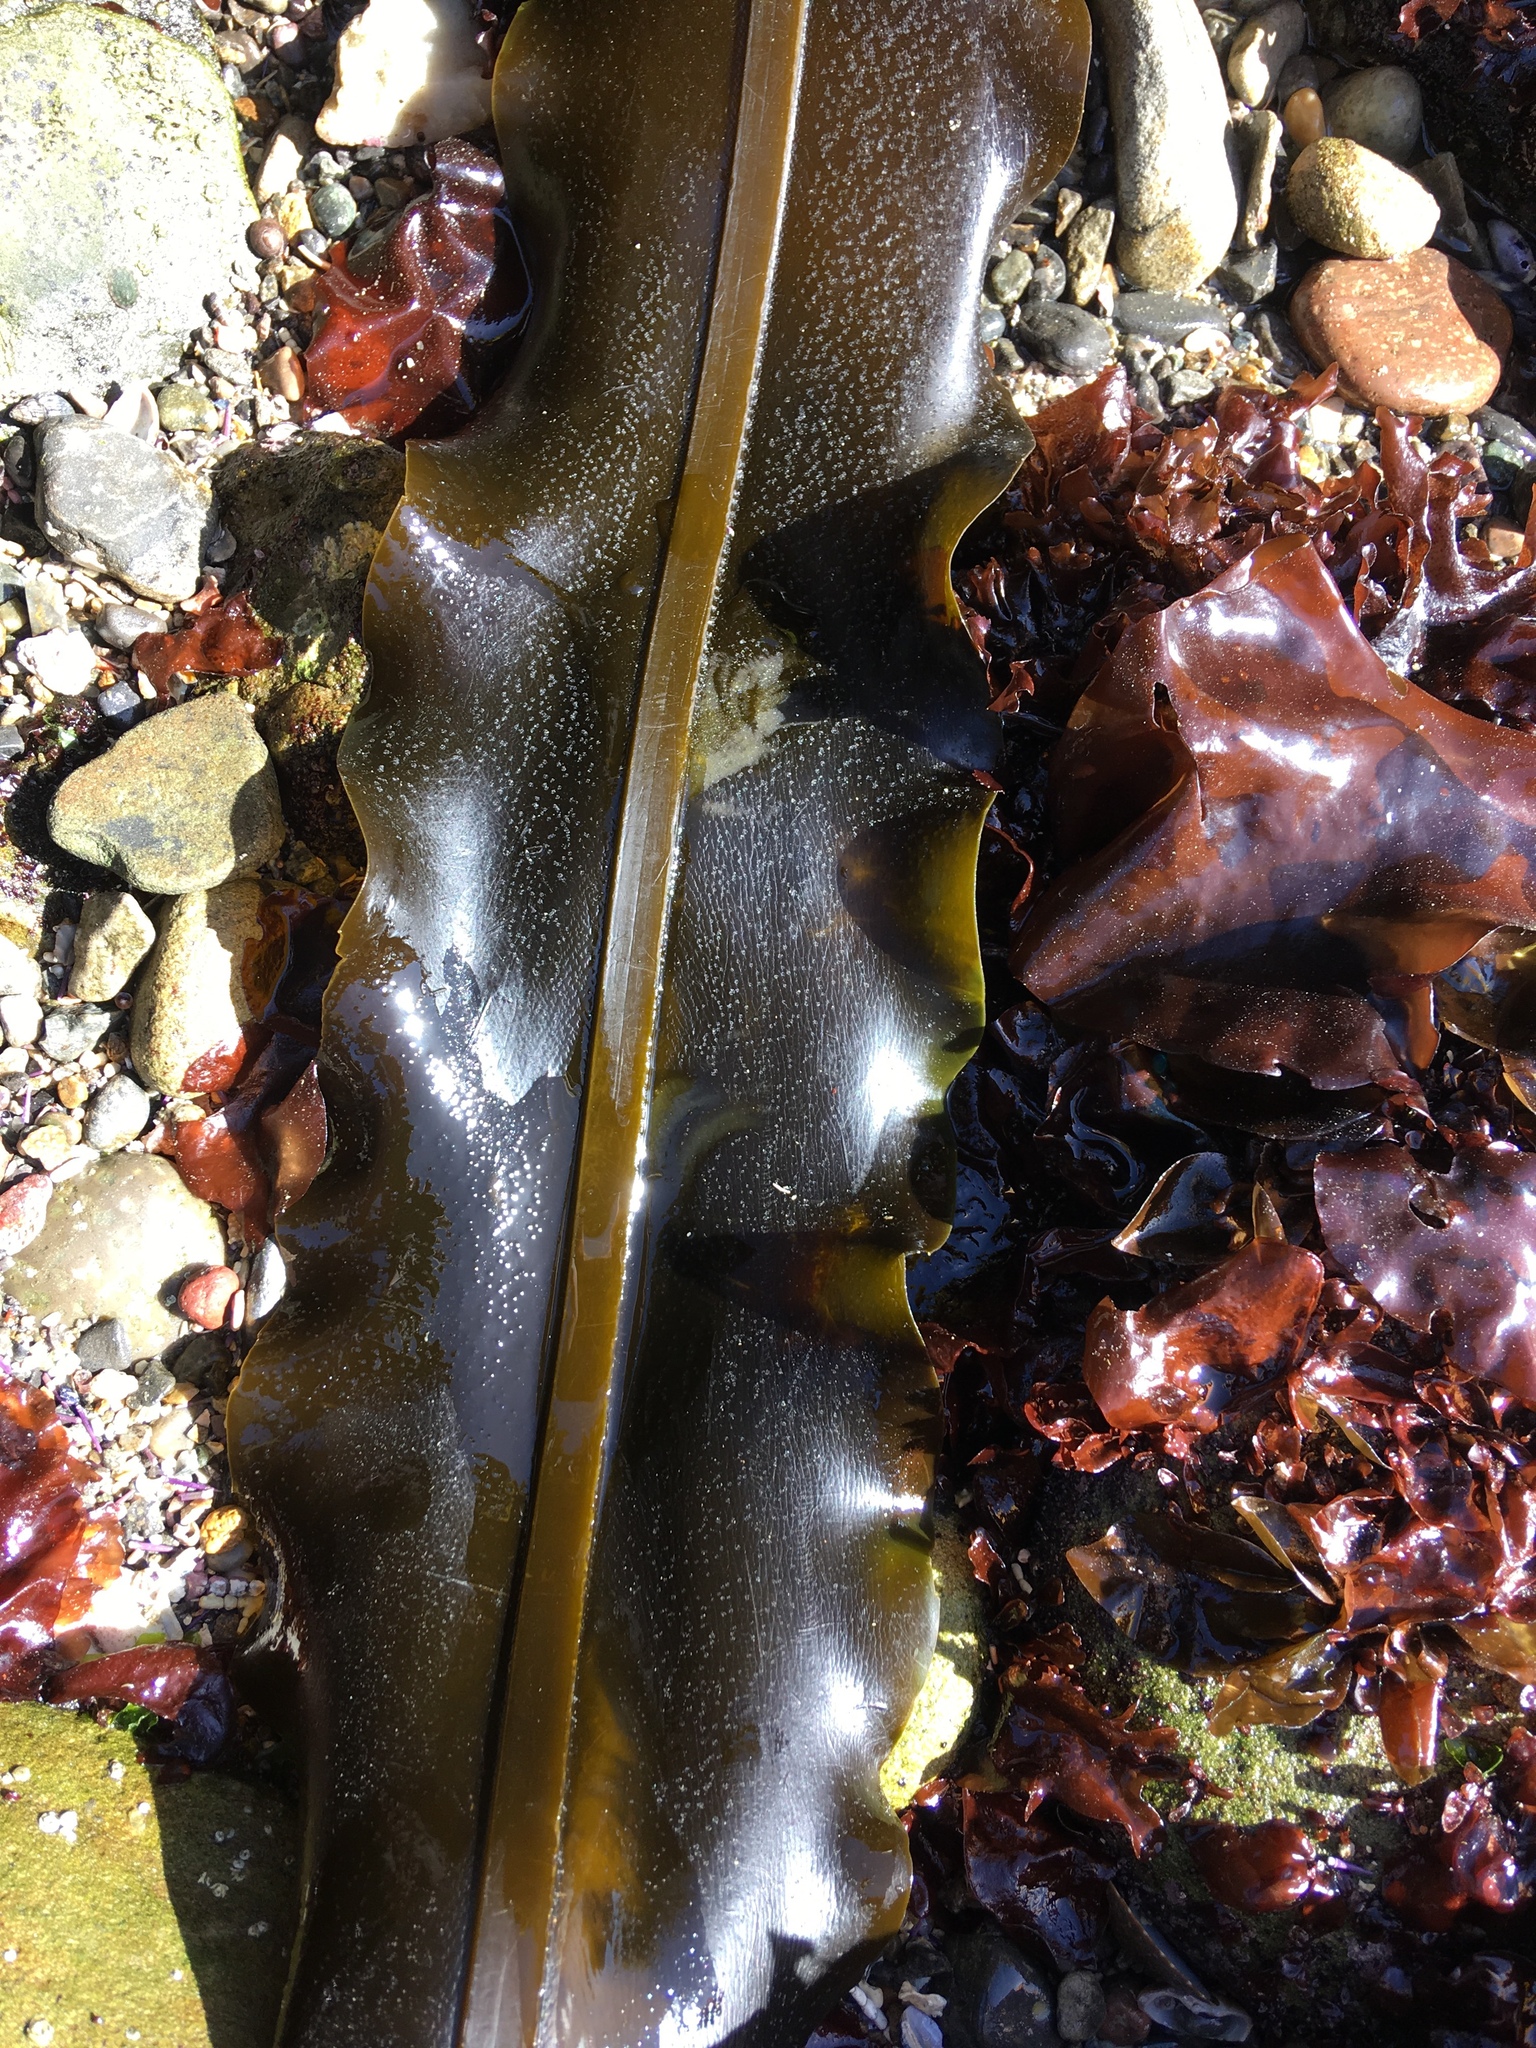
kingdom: Chromista
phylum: Ochrophyta
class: Phaeophyceae
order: Laminariales
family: Alariaceae
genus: Alaria
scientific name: Alaria marginata
